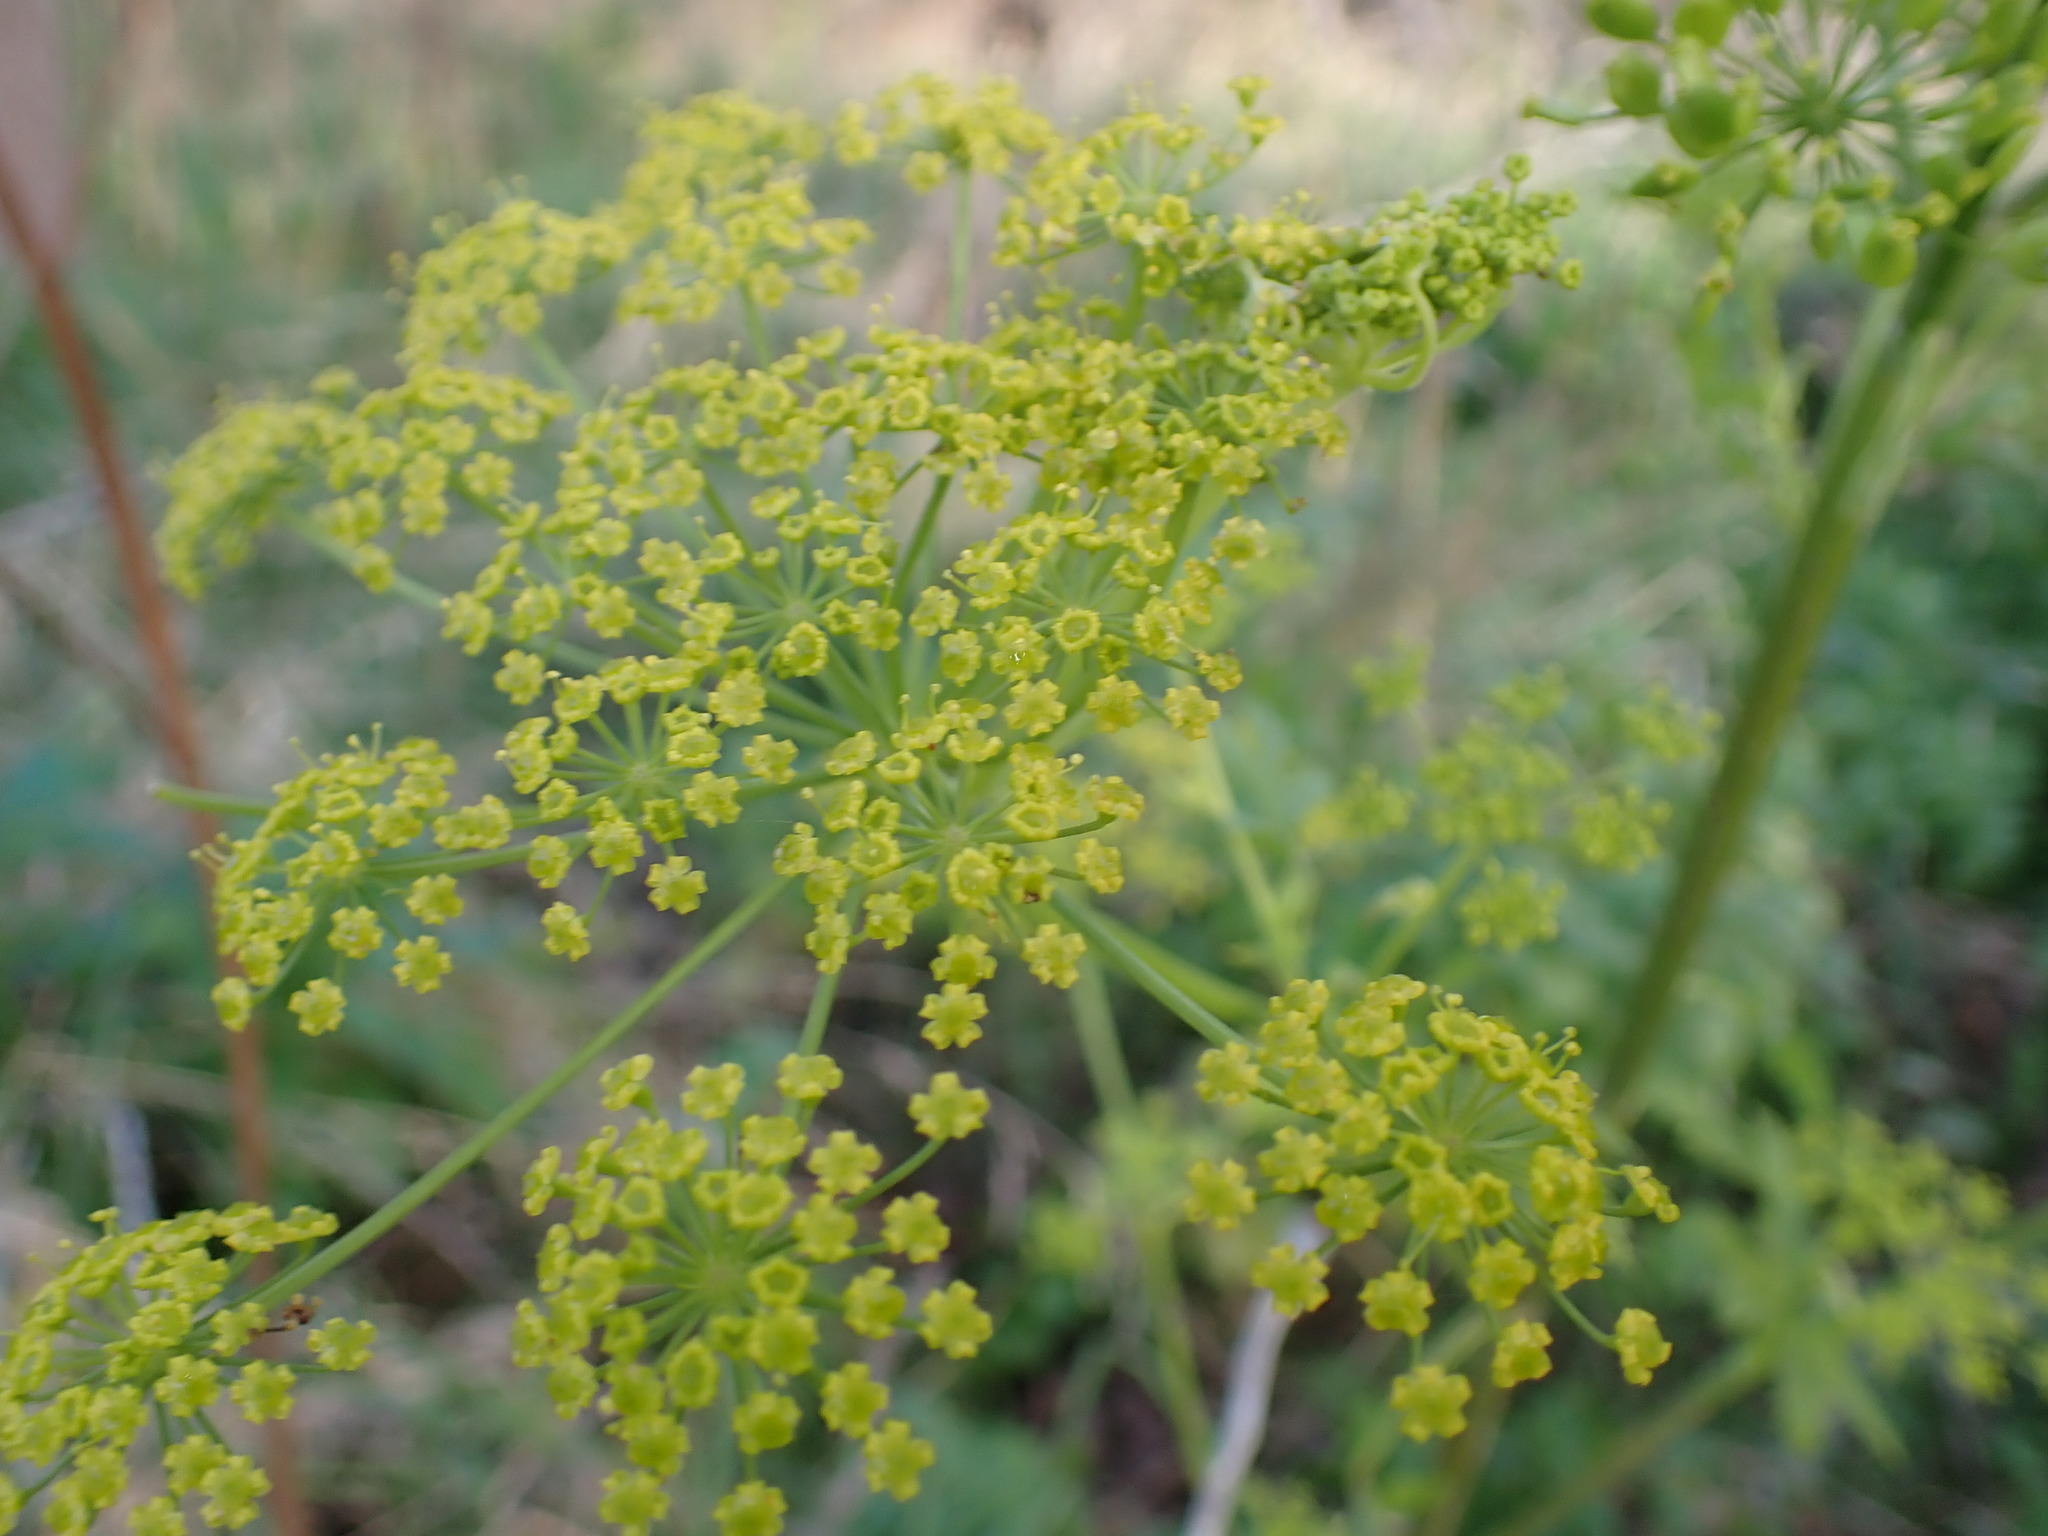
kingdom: Plantae
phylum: Tracheophyta
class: Magnoliopsida
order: Apiales
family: Apiaceae
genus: Pastinaca
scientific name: Pastinaca sativa
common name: Wild parsnip
